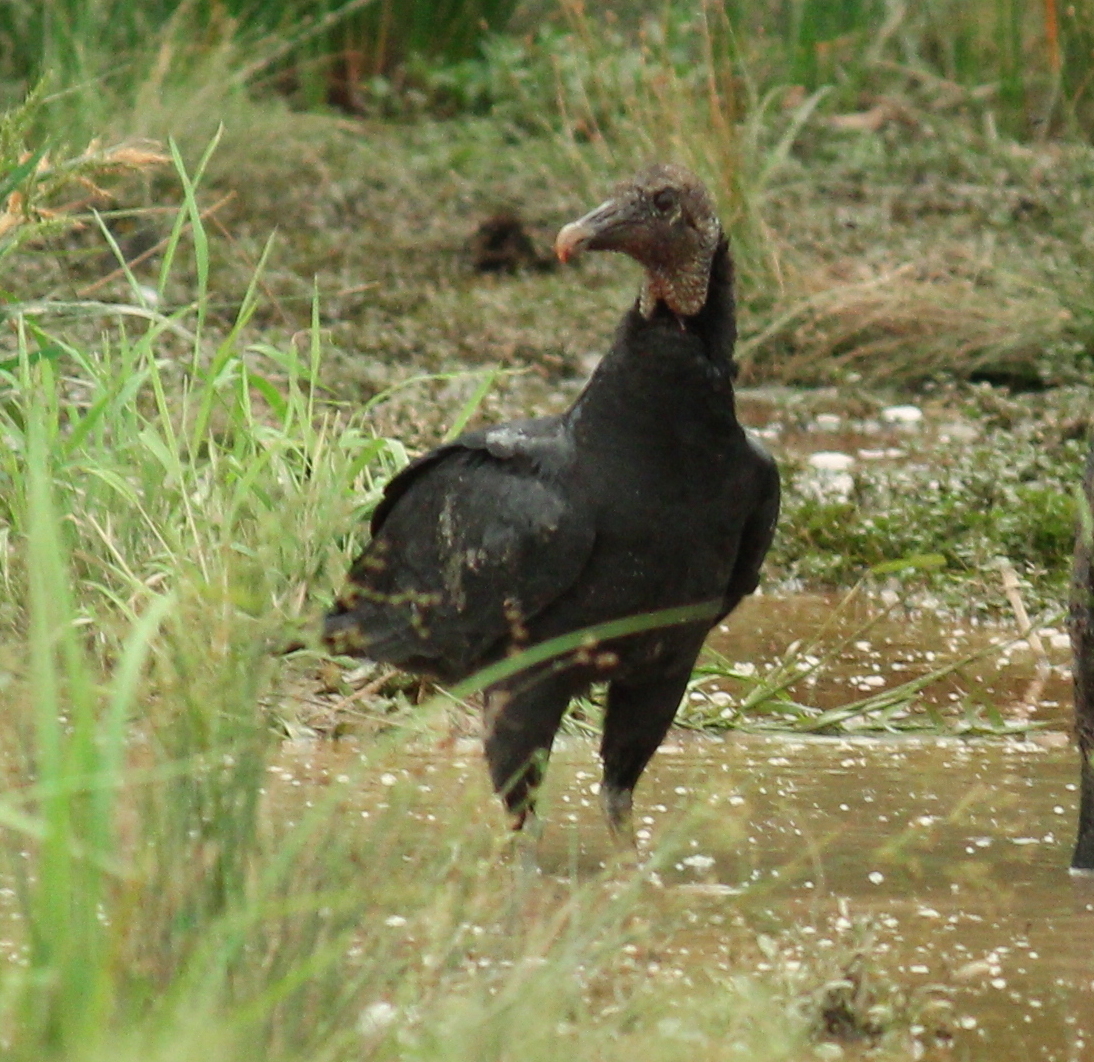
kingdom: Animalia
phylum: Chordata
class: Aves
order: Accipitriformes
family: Cathartidae
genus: Coragyps
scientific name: Coragyps atratus
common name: Black vulture
